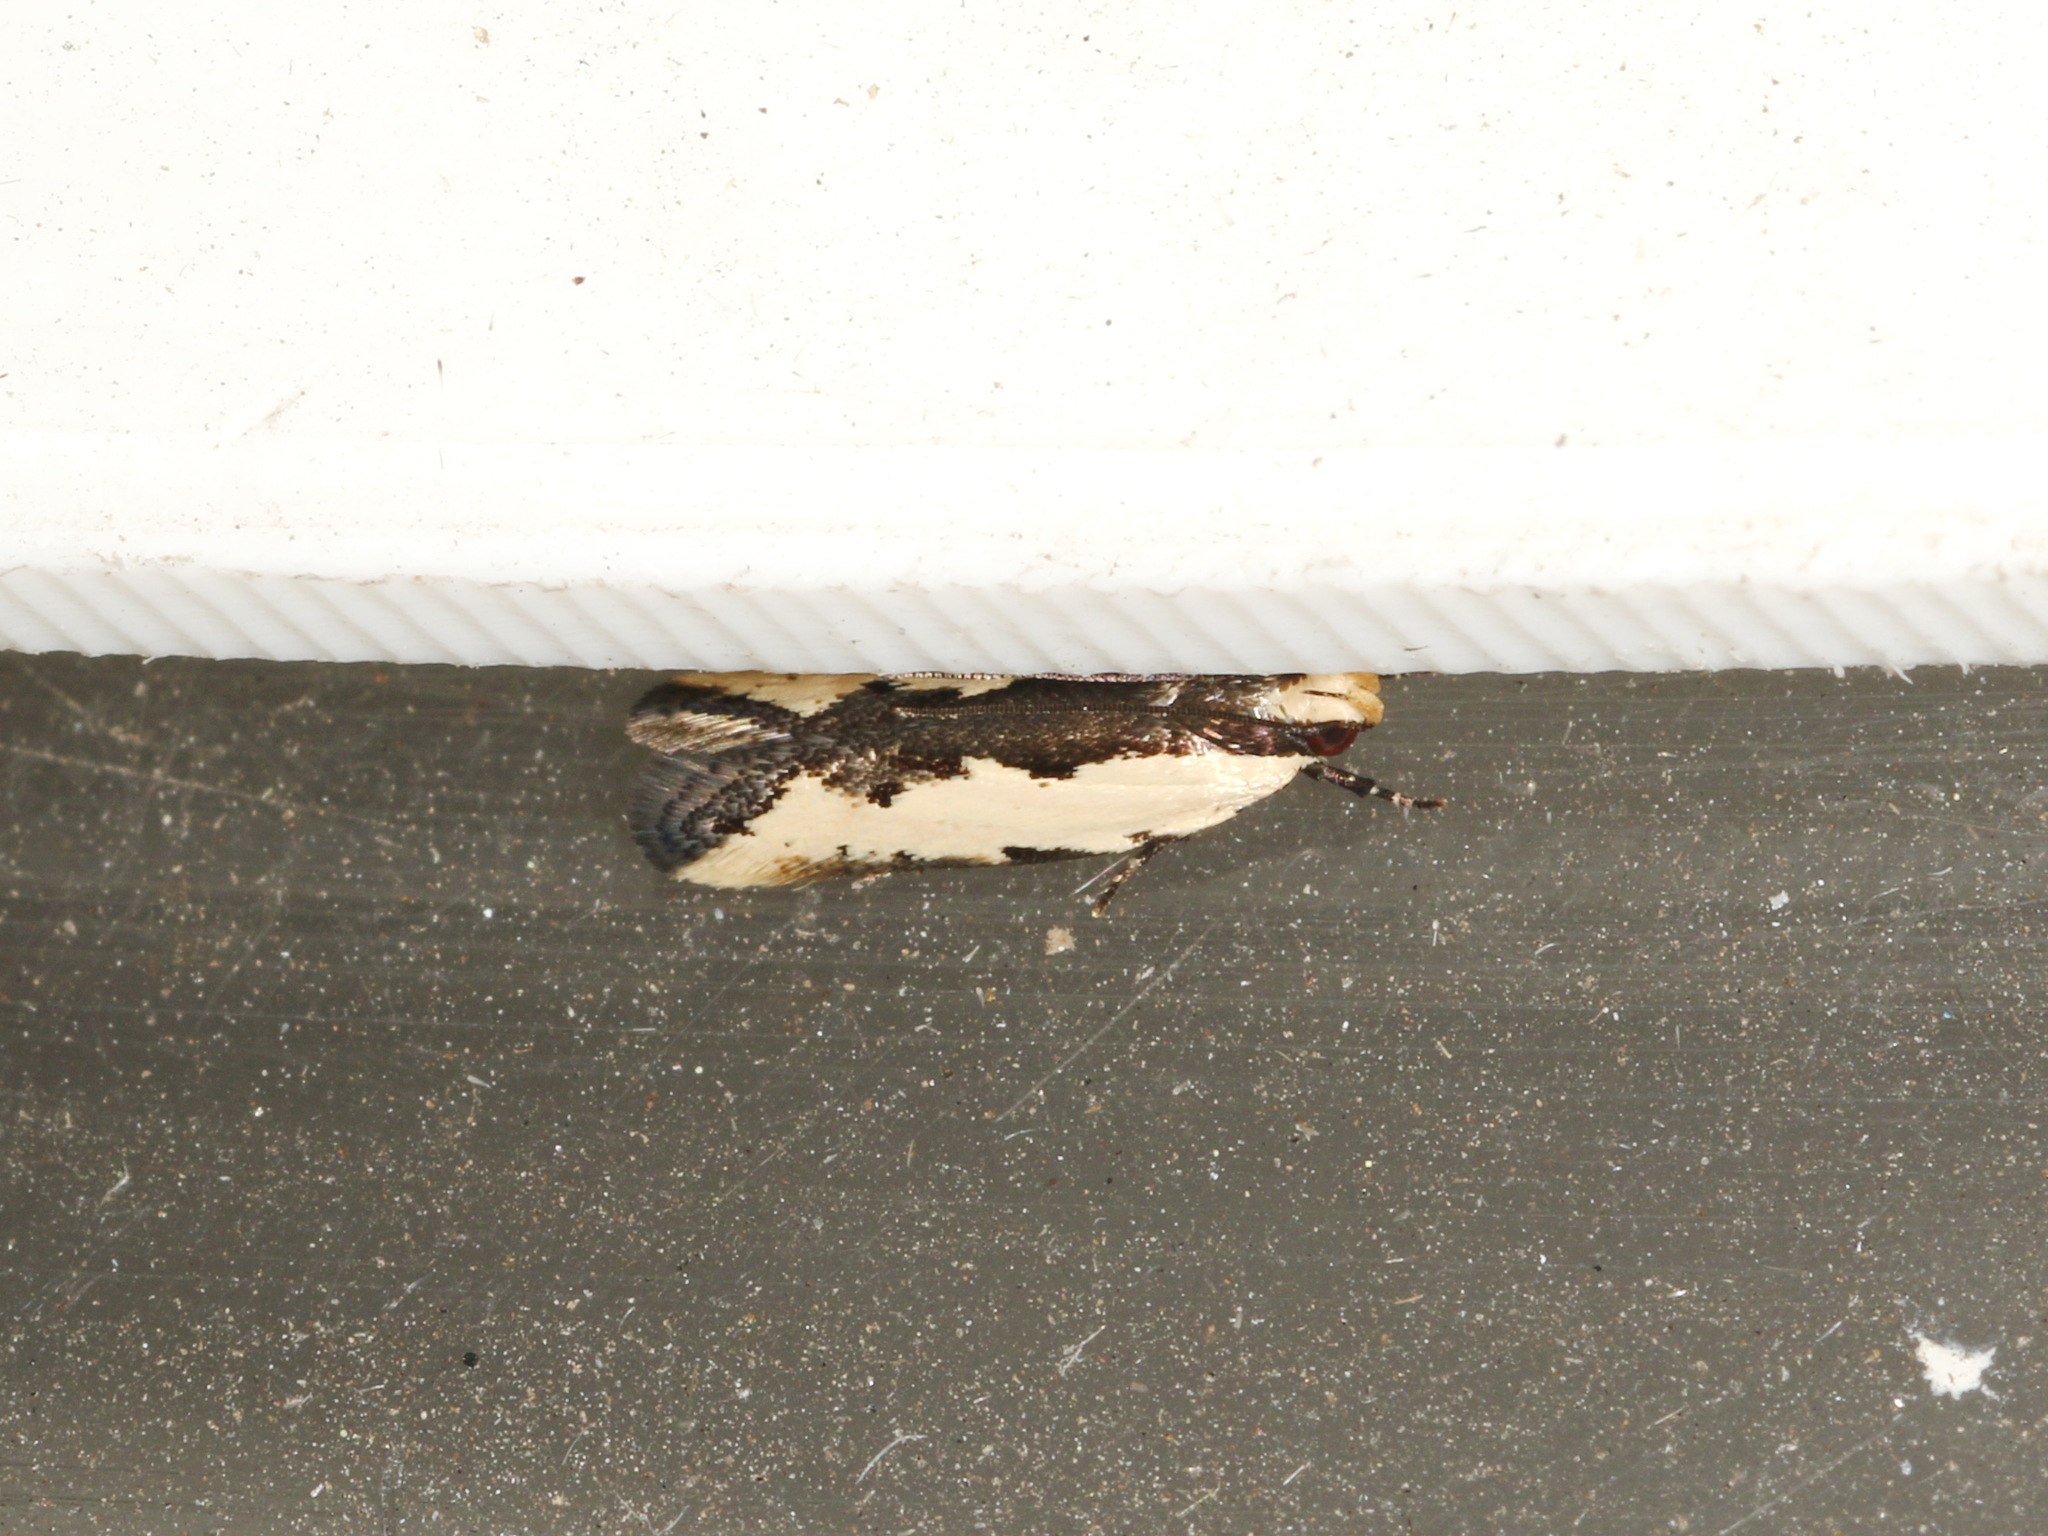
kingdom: Animalia
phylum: Arthropoda
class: Insecta
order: Lepidoptera
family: Gelechiidae
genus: Ardozyga
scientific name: Ardozyga catarrhacta
